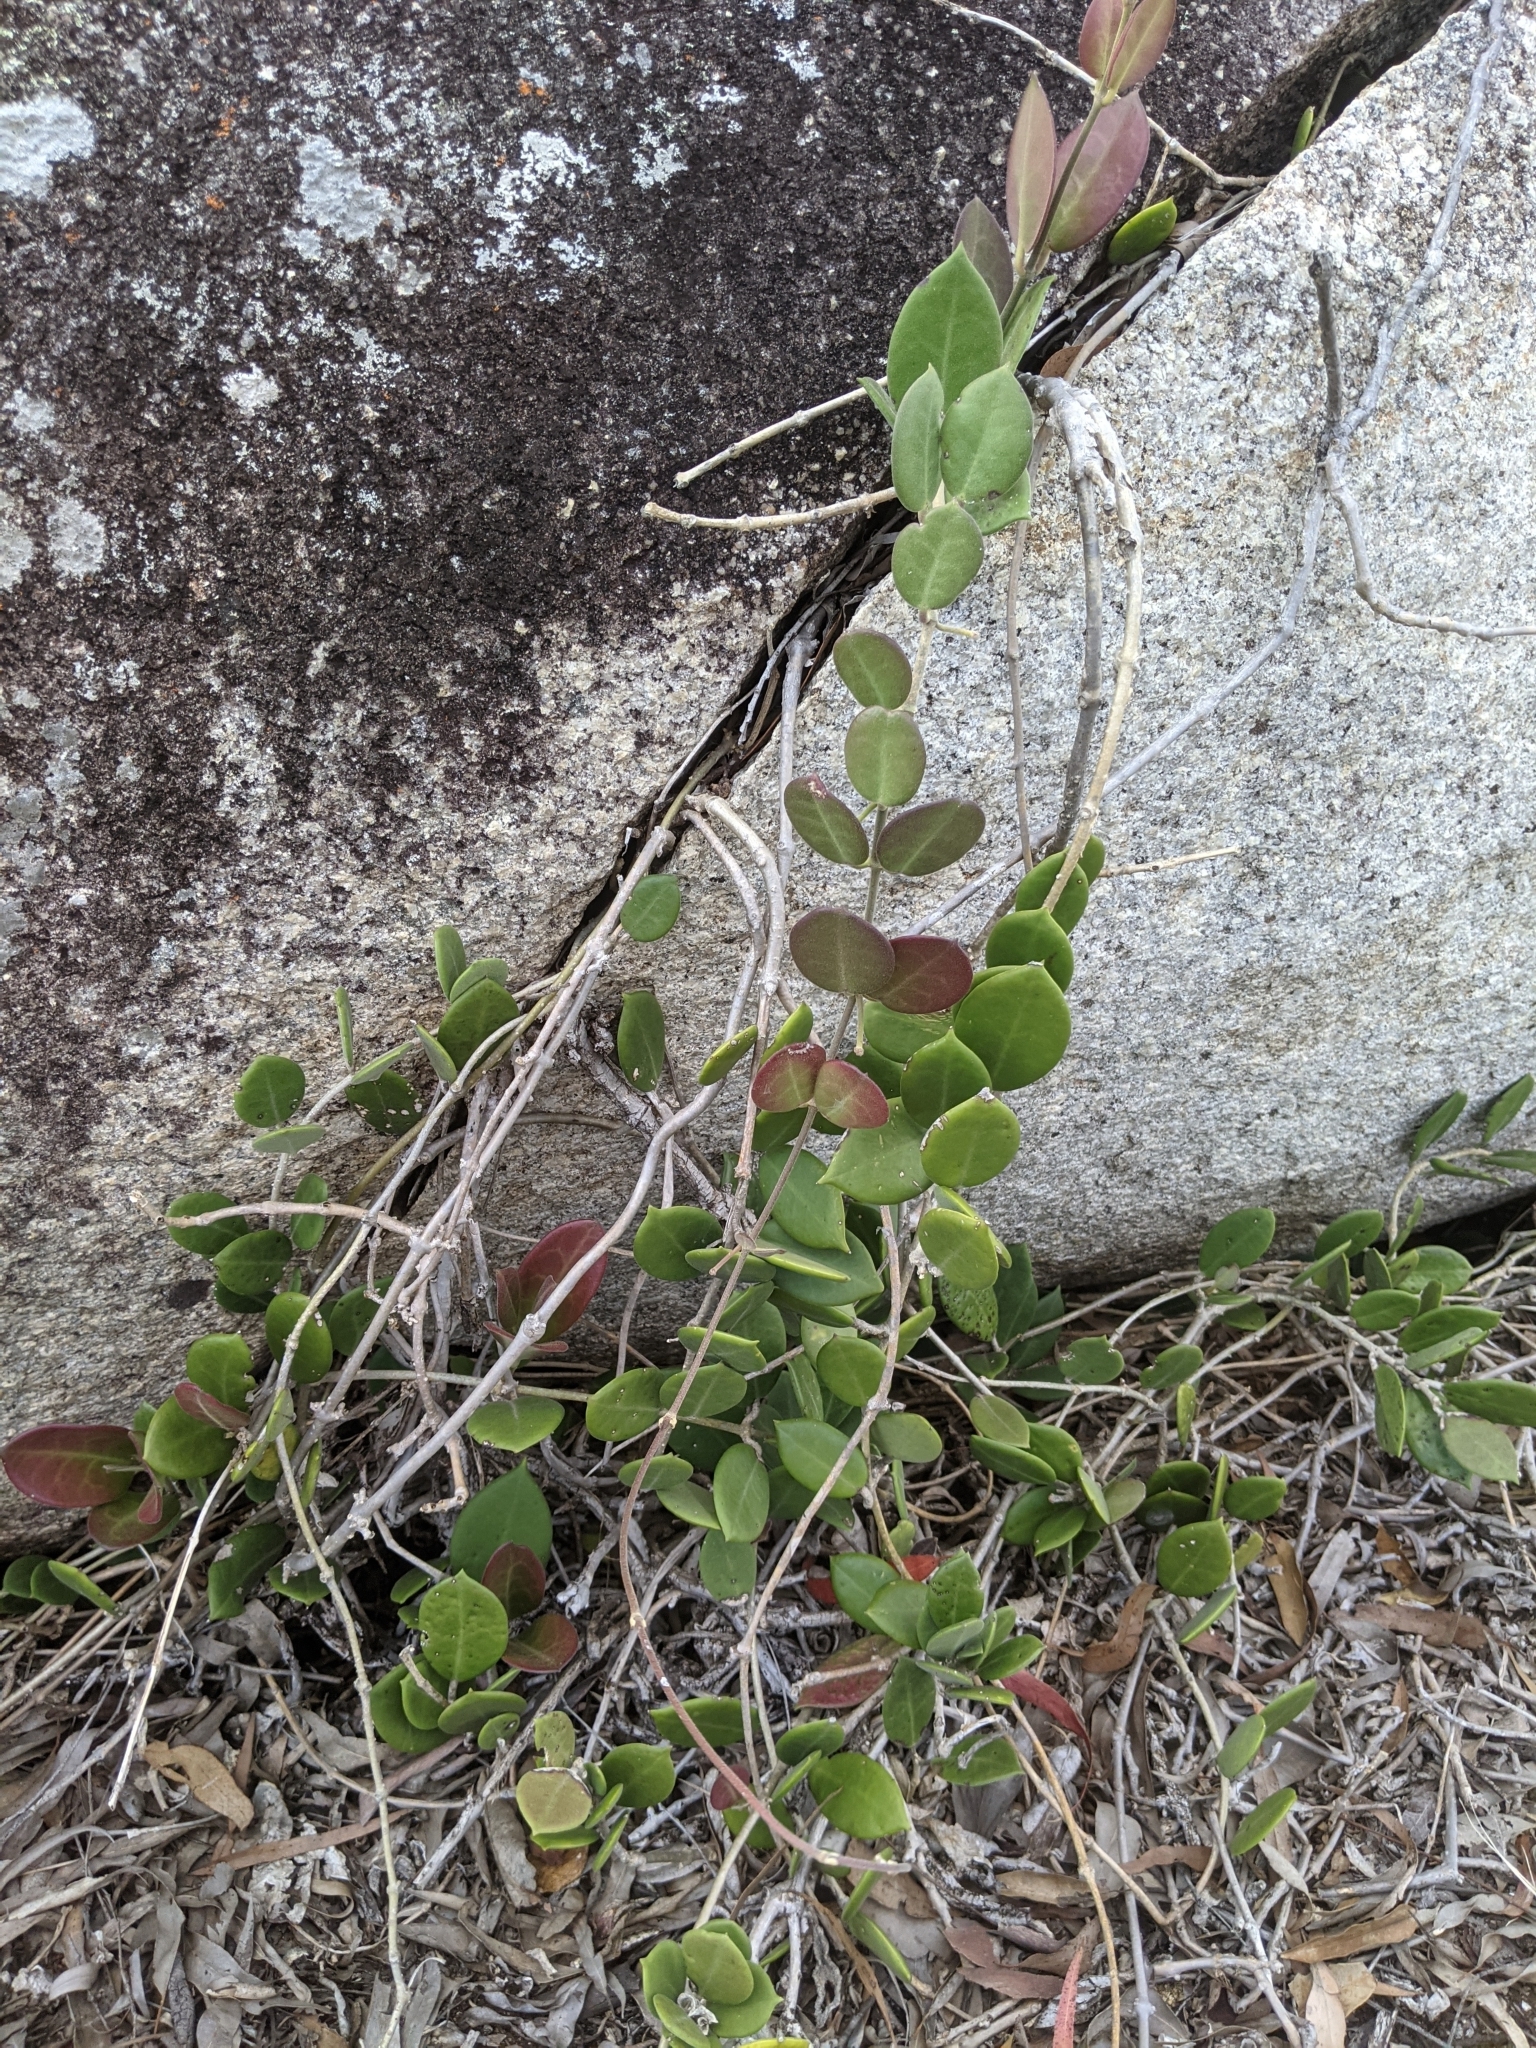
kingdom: Plantae
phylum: Tracheophyta
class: Magnoliopsida
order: Gentianales
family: Apocynaceae
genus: Hoya
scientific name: Hoya australis
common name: Wax flower
